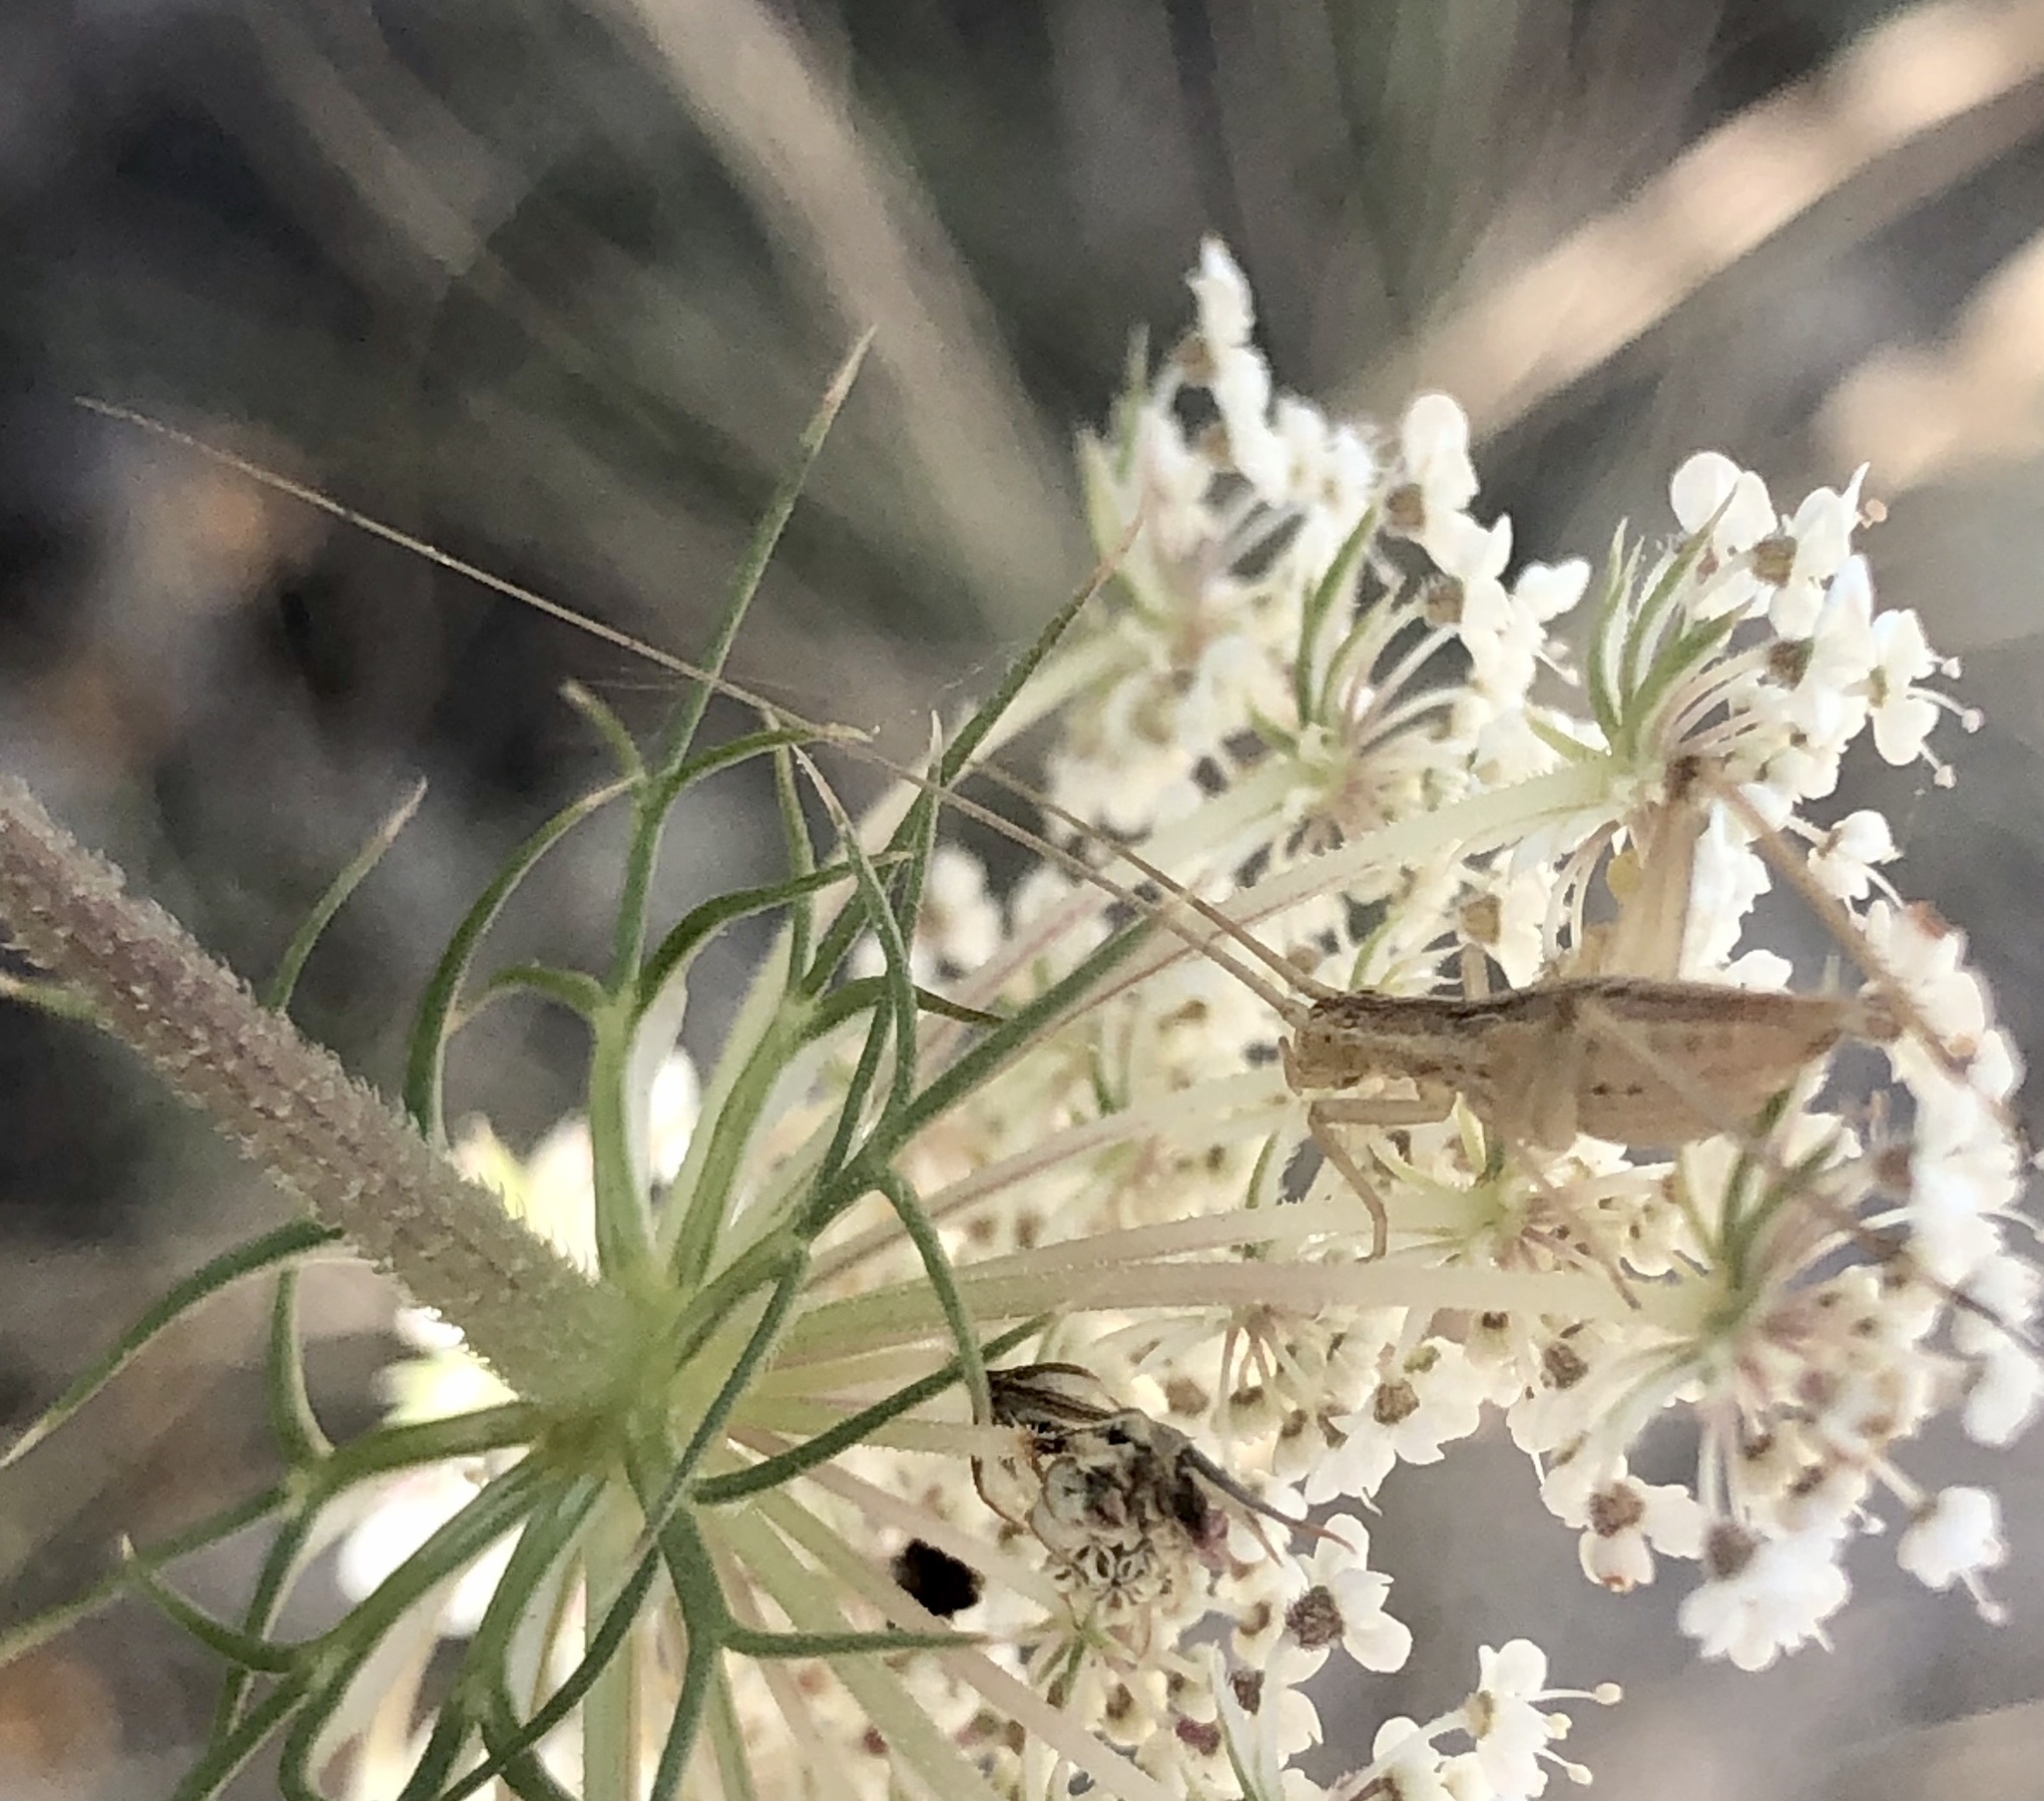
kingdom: Animalia
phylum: Arthropoda
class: Insecta
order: Orthoptera
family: Gryllidae
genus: Oecanthus
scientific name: Oecanthus pellucens
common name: Tree-cricket
